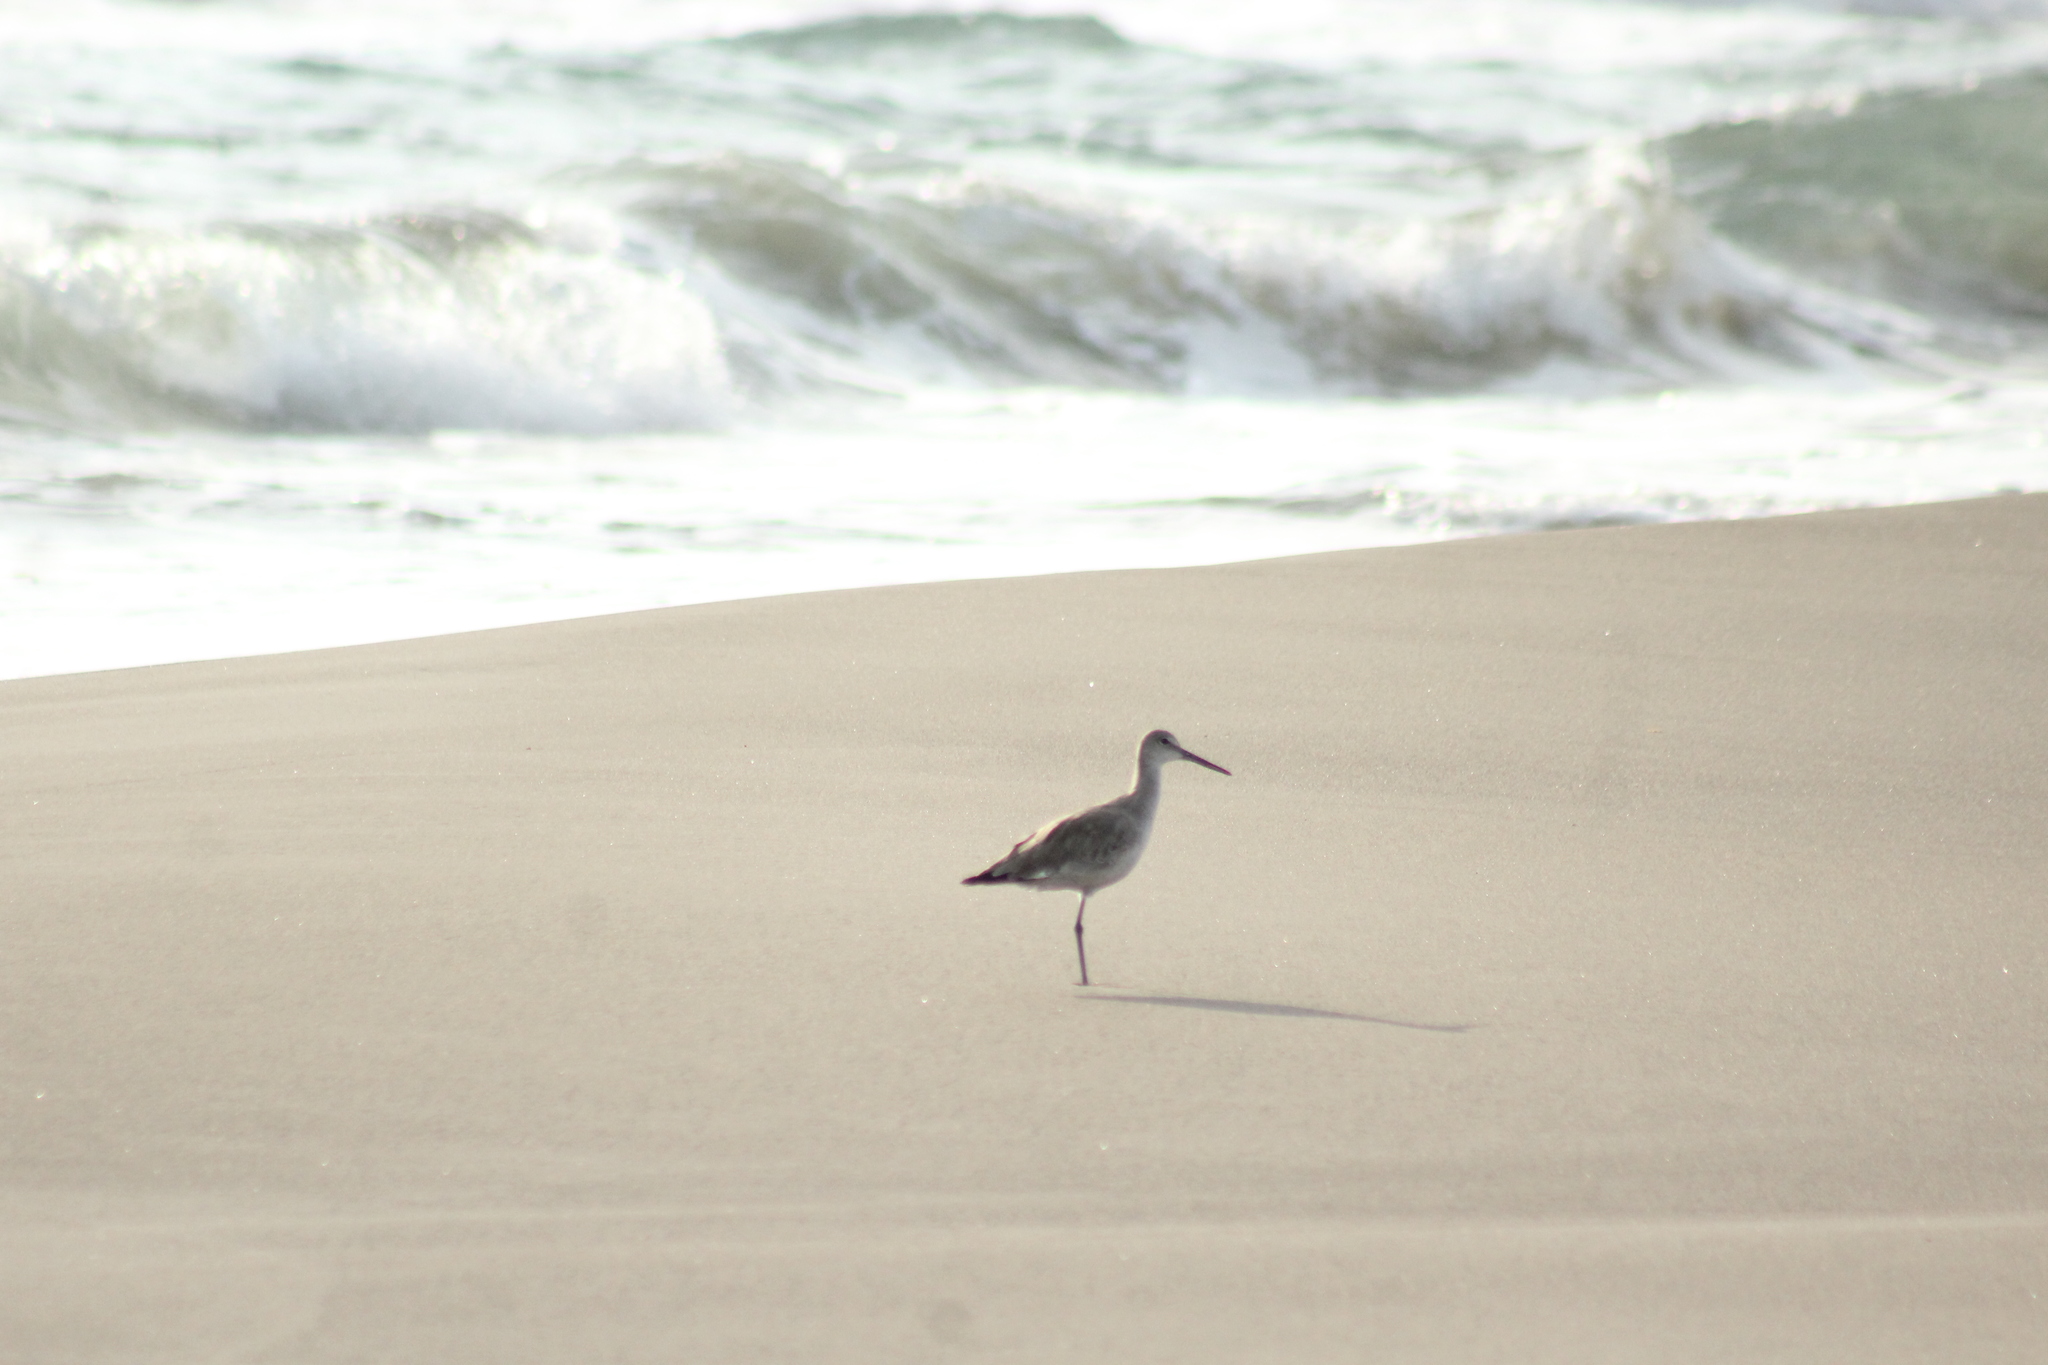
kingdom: Animalia
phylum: Chordata
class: Aves
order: Charadriiformes
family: Scolopacidae
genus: Tringa
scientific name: Tringa semipalmata
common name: Willet
